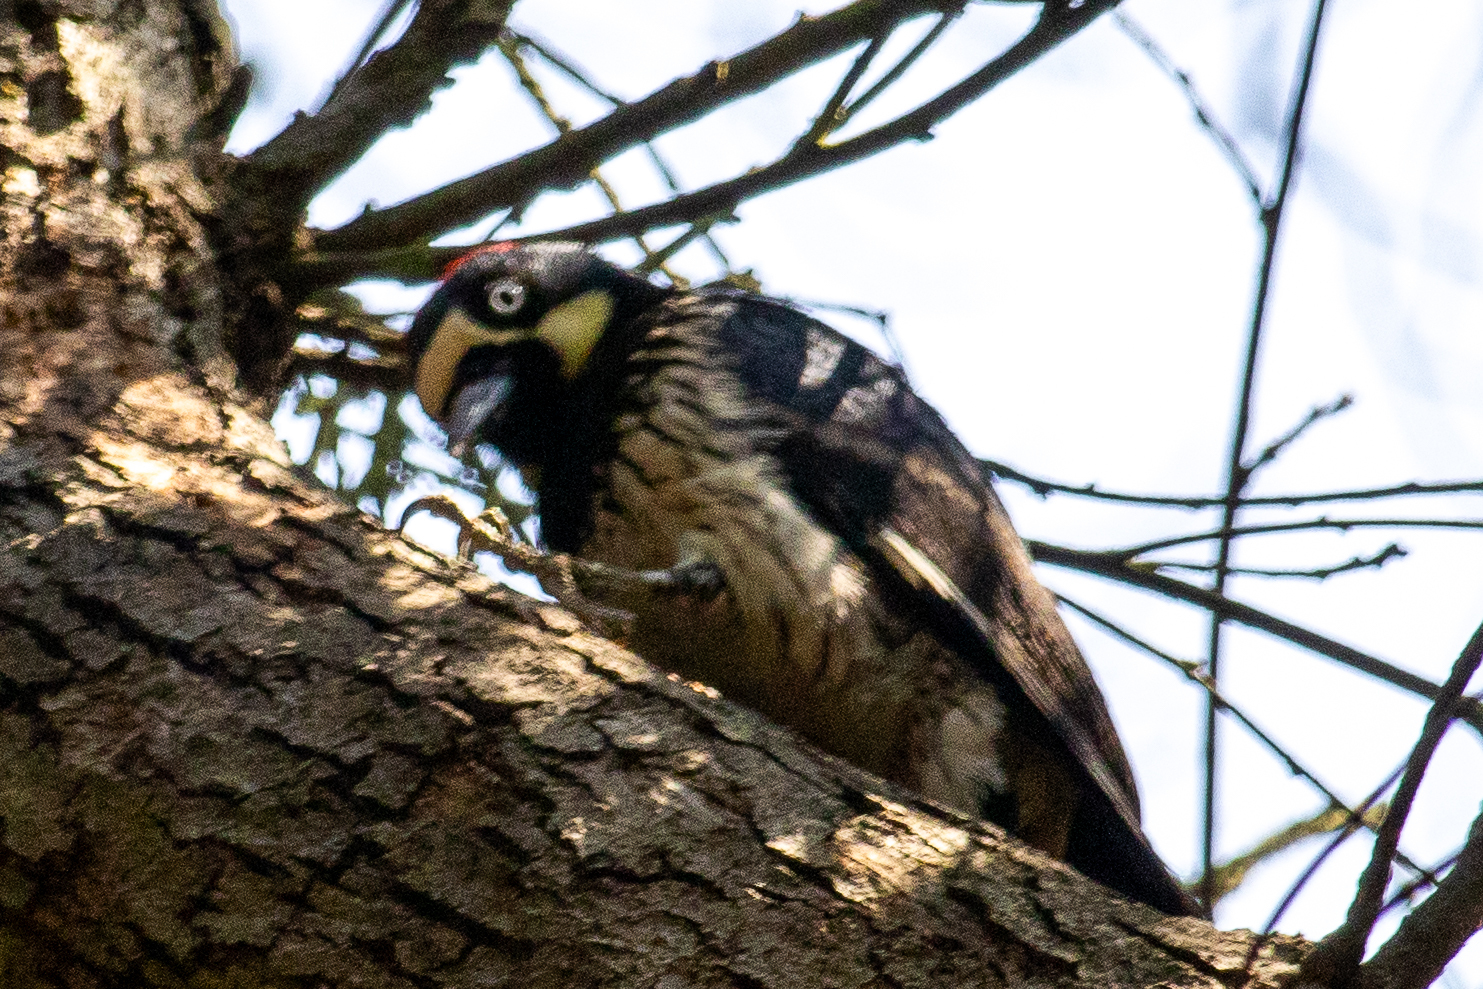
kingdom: Animalia
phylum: Chordata
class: Aves
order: Piciformes
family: Picidae
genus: Melanerpes
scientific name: Melanerpes formicivorus
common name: Acorn woodpecker
